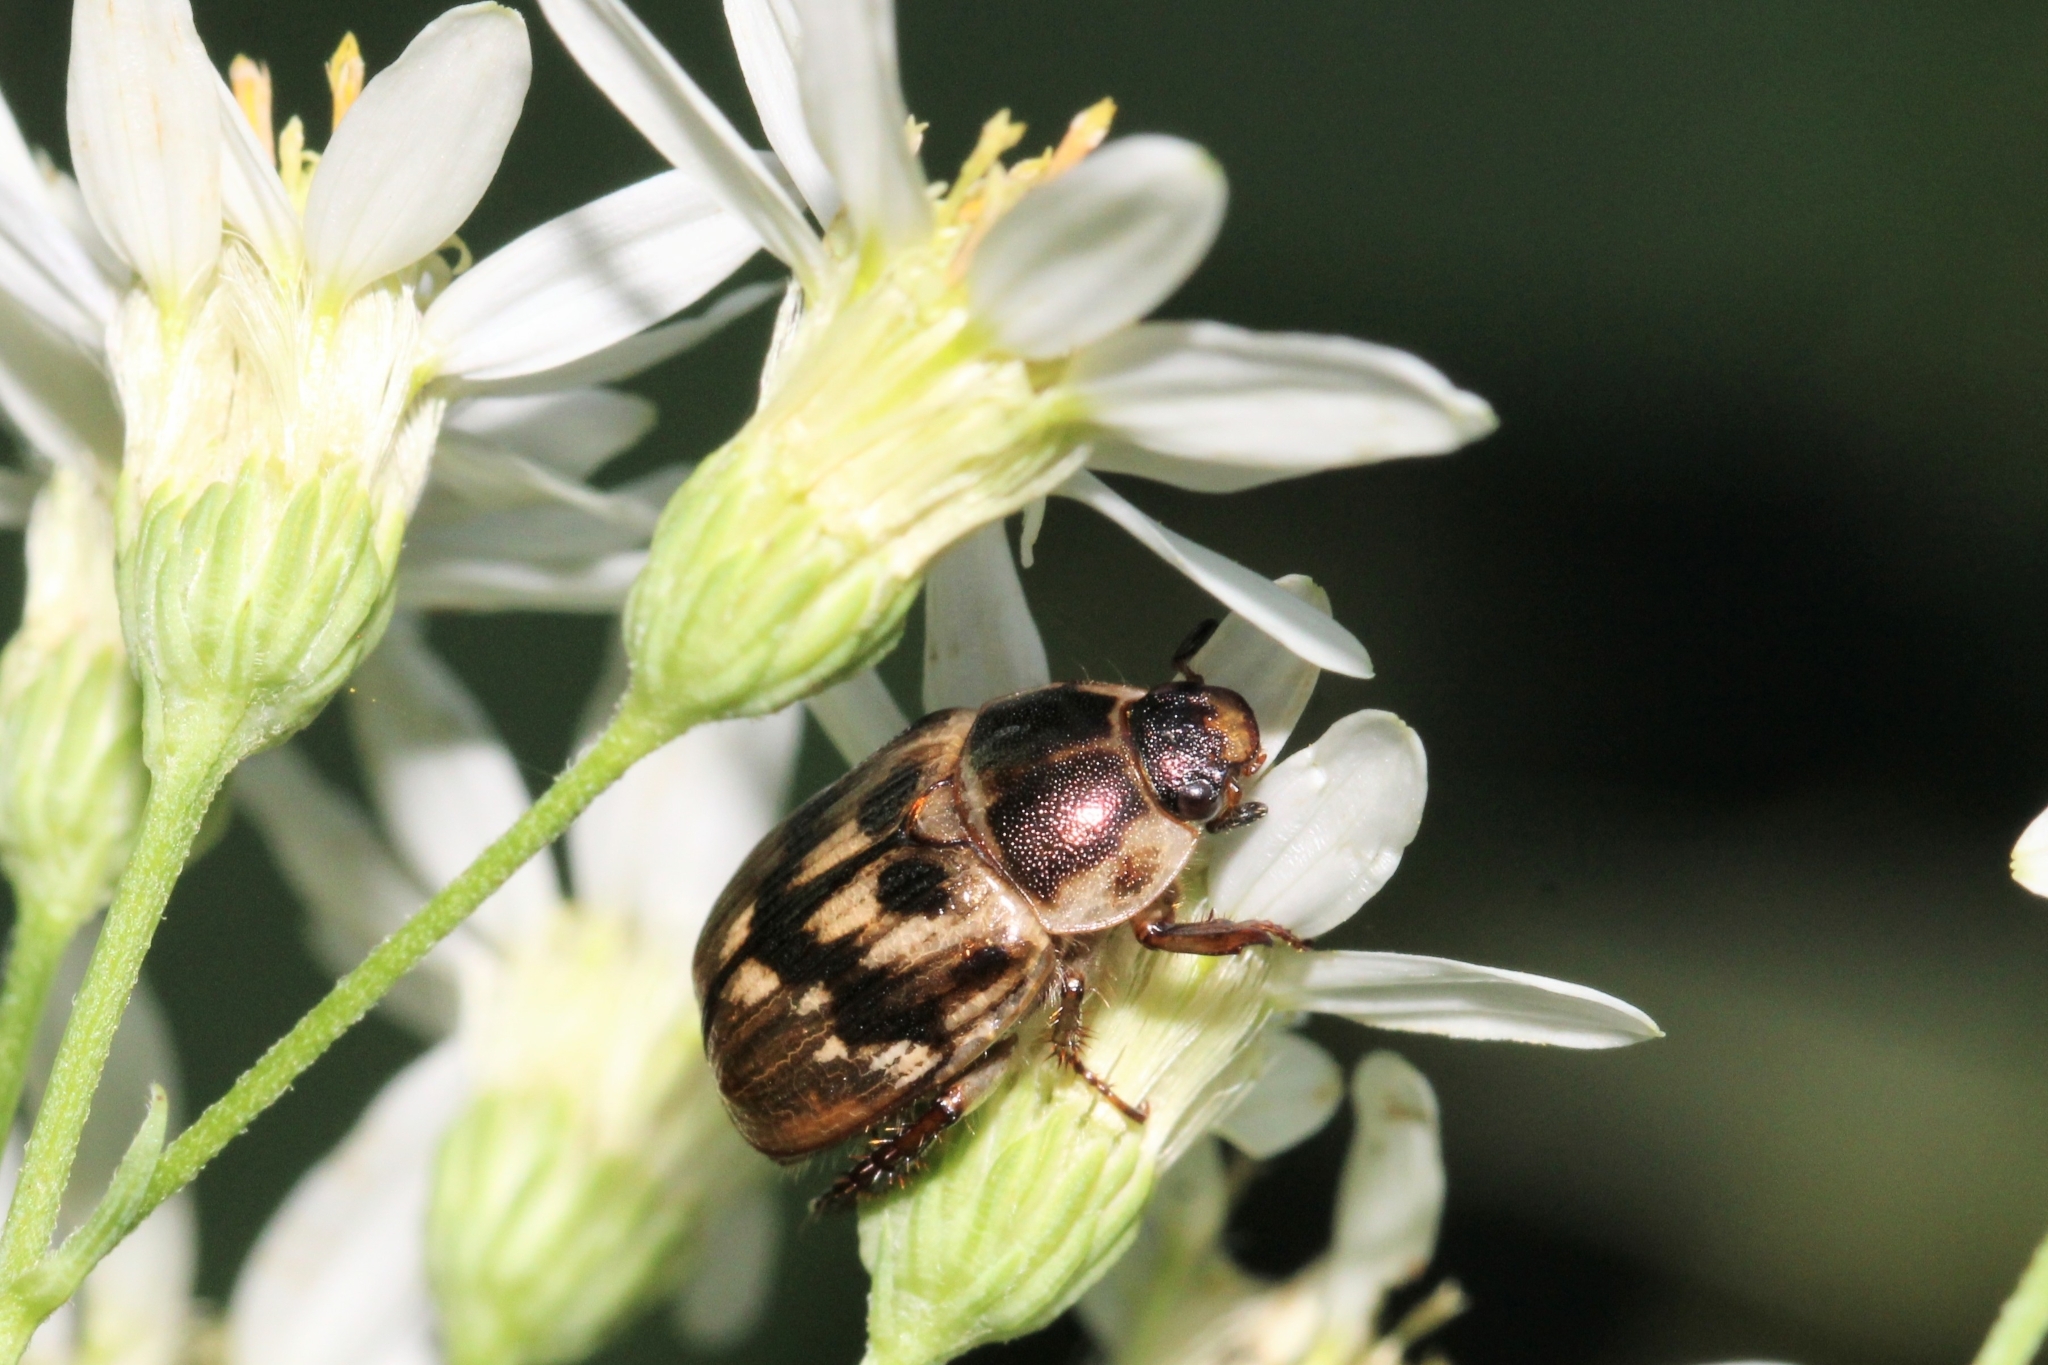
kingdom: Animalia
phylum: Arthropoda
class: Insecta
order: Coleoptera
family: Scarabaeidae
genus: Exomala
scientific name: Exomala orientalis
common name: Oriental beetle
